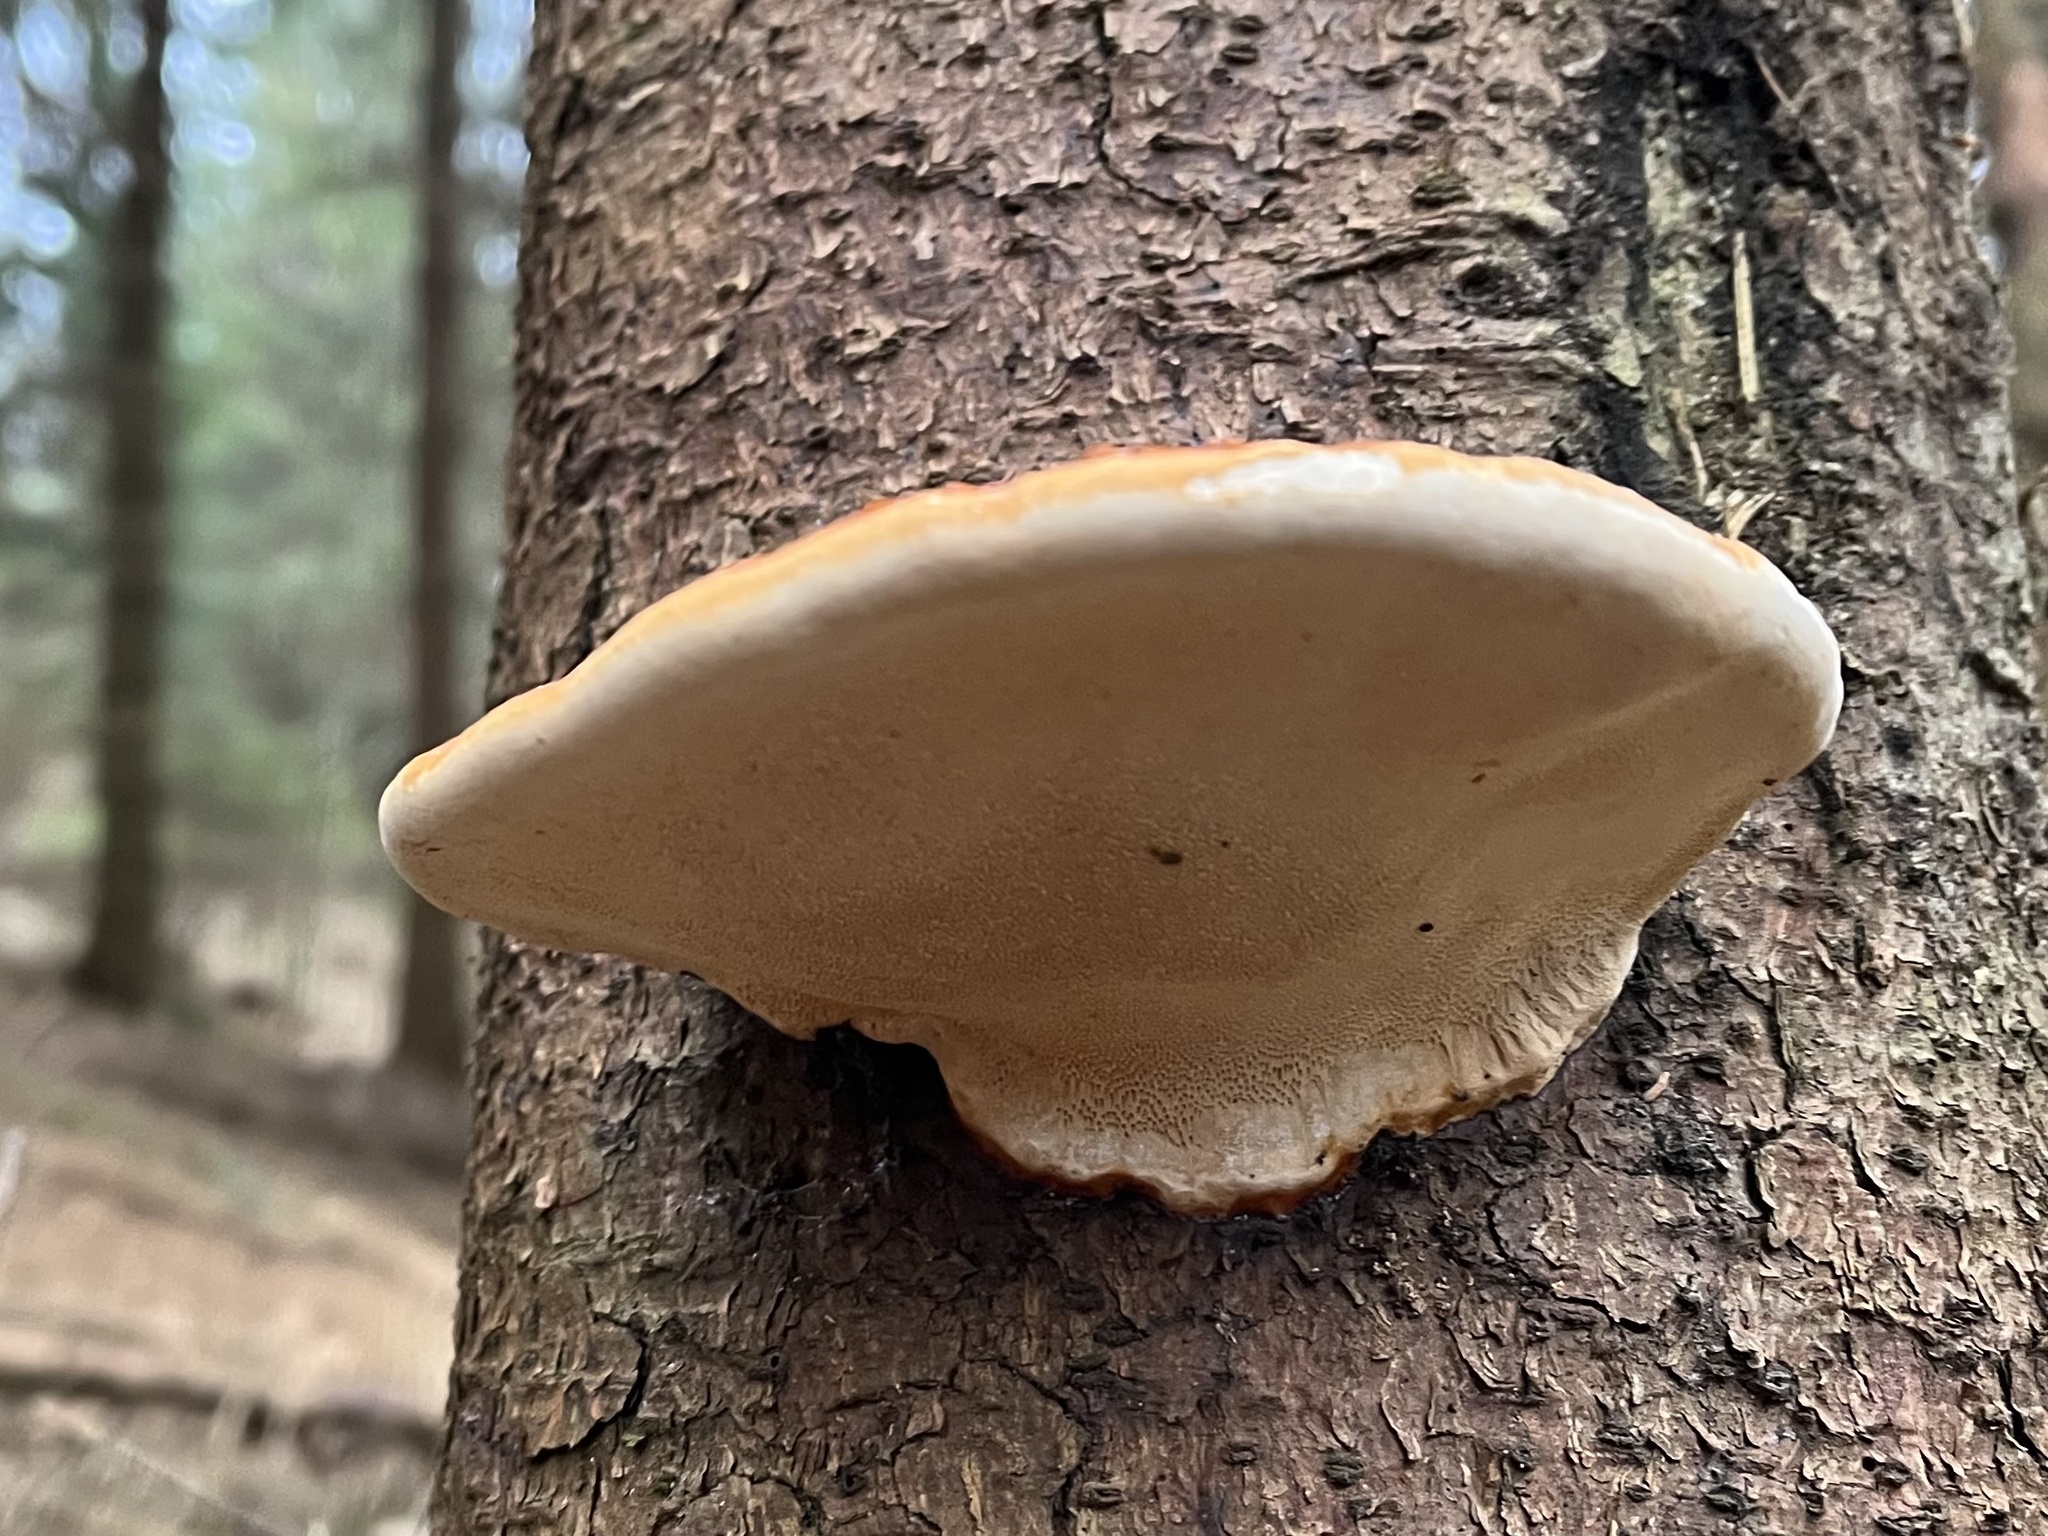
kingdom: Fungi
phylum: Basidiomycota
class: Agaricomycetes
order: Polyporales
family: Fomitopsidaceae
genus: Fomitopsis
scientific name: Fomitopsis pinicola
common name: Red-belted bracket
